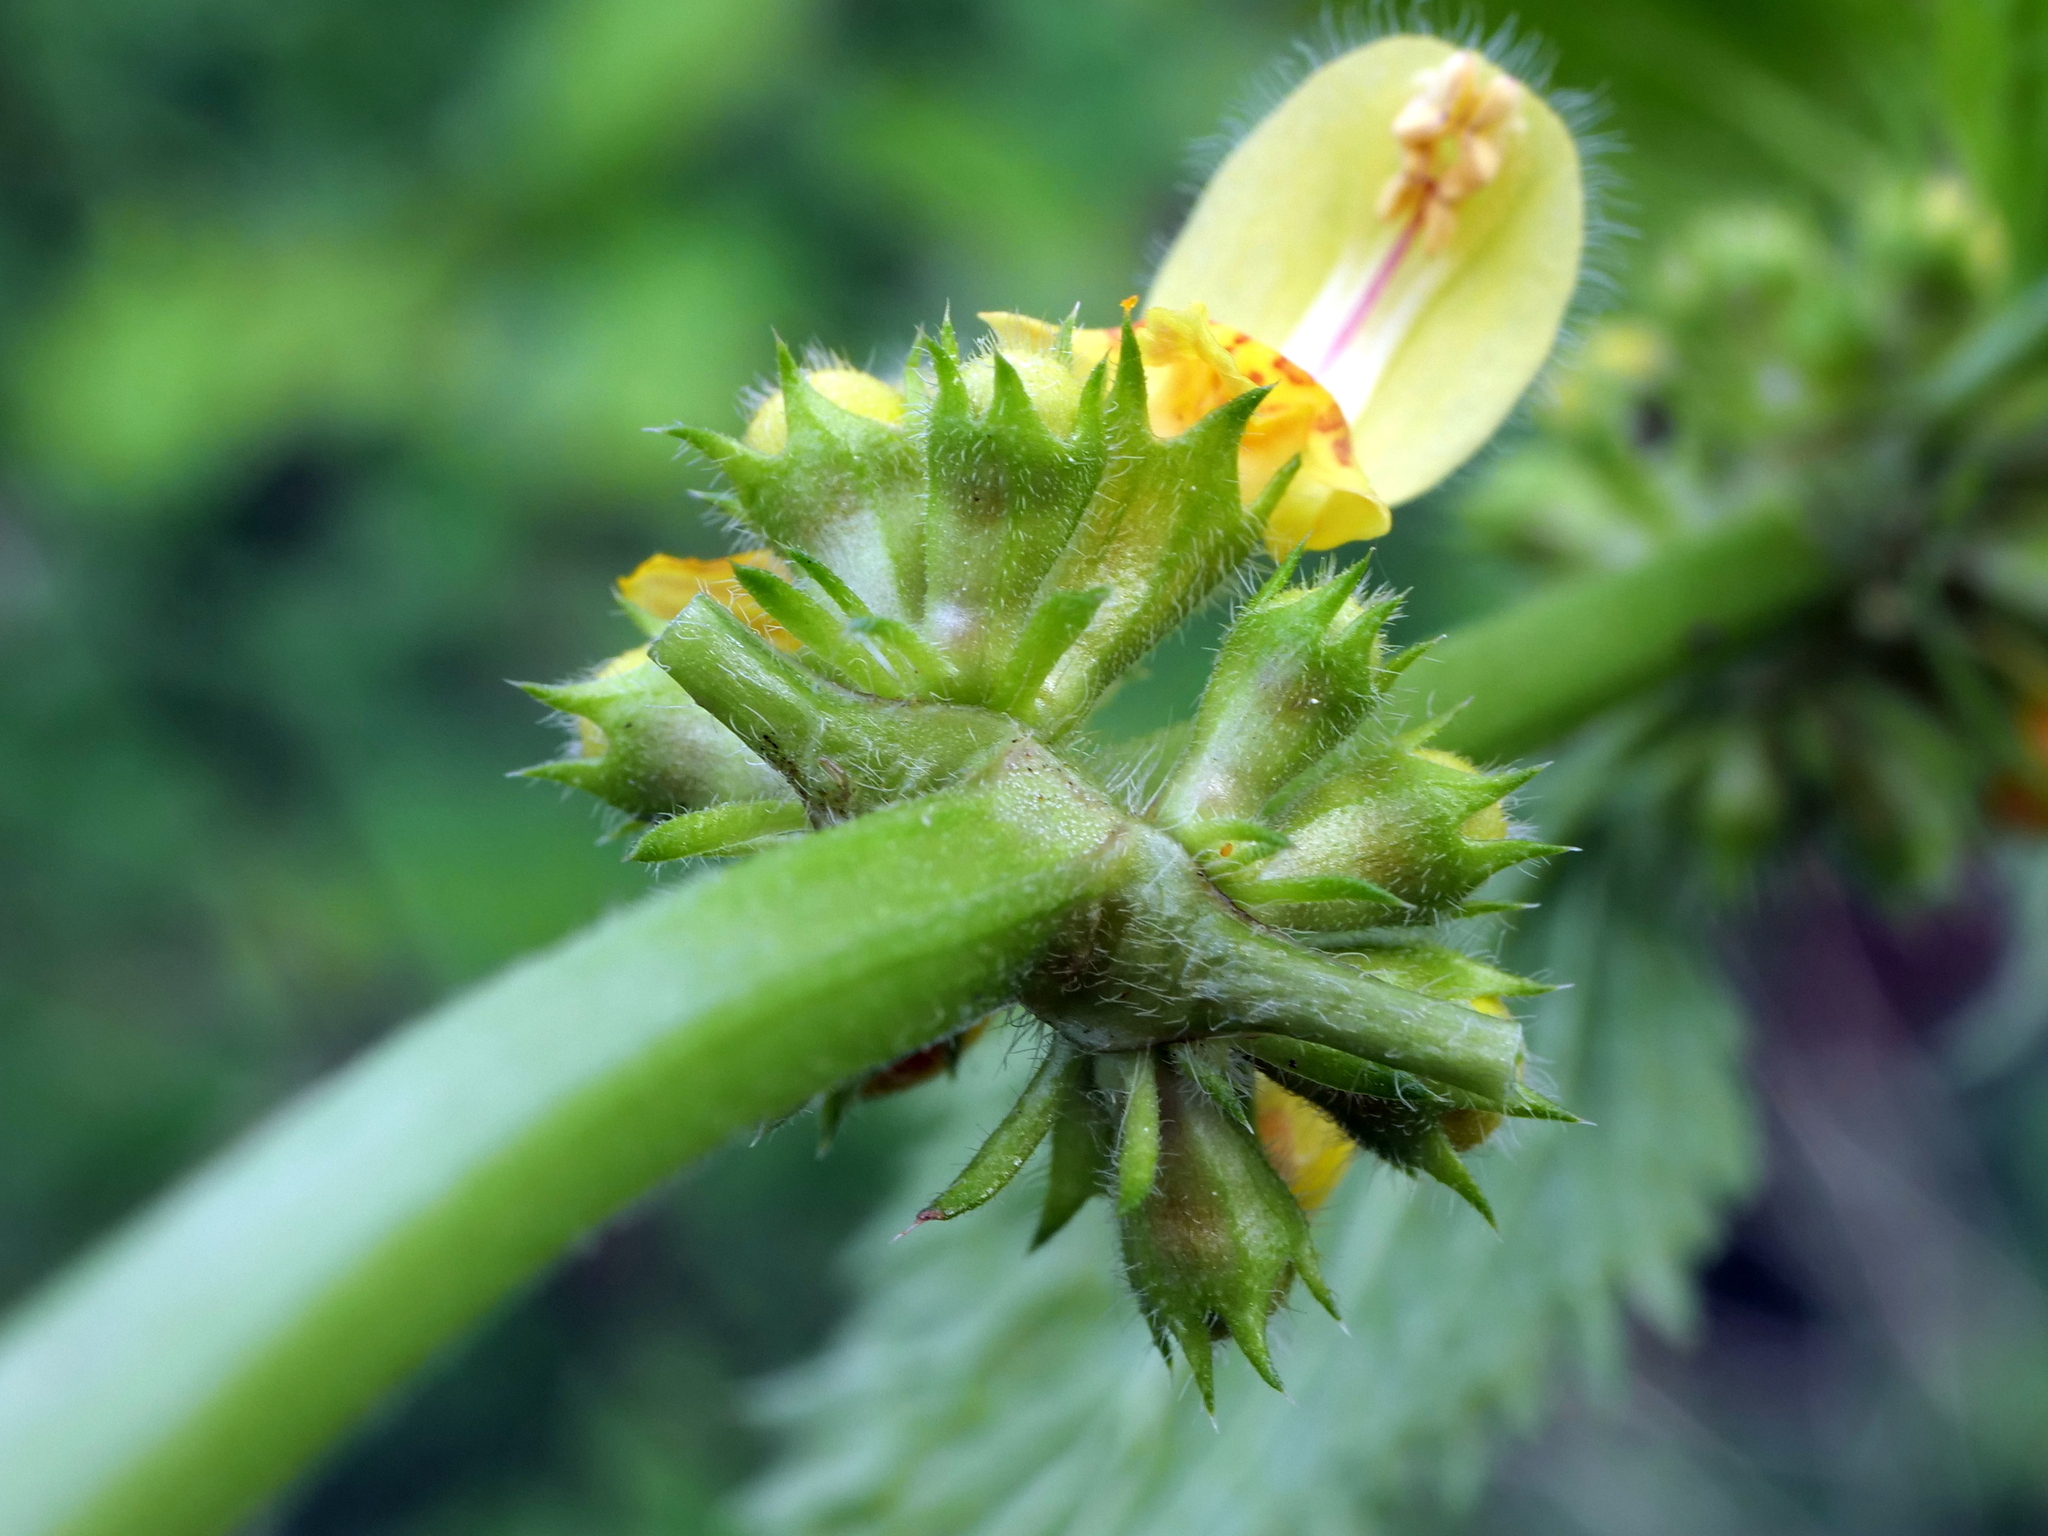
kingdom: Plantae
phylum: Tracheophyta
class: Magnoliopsida
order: Lamiales
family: Lamiaceae
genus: Lamium
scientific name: Lamium galeobdolon
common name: Yellow archangel
